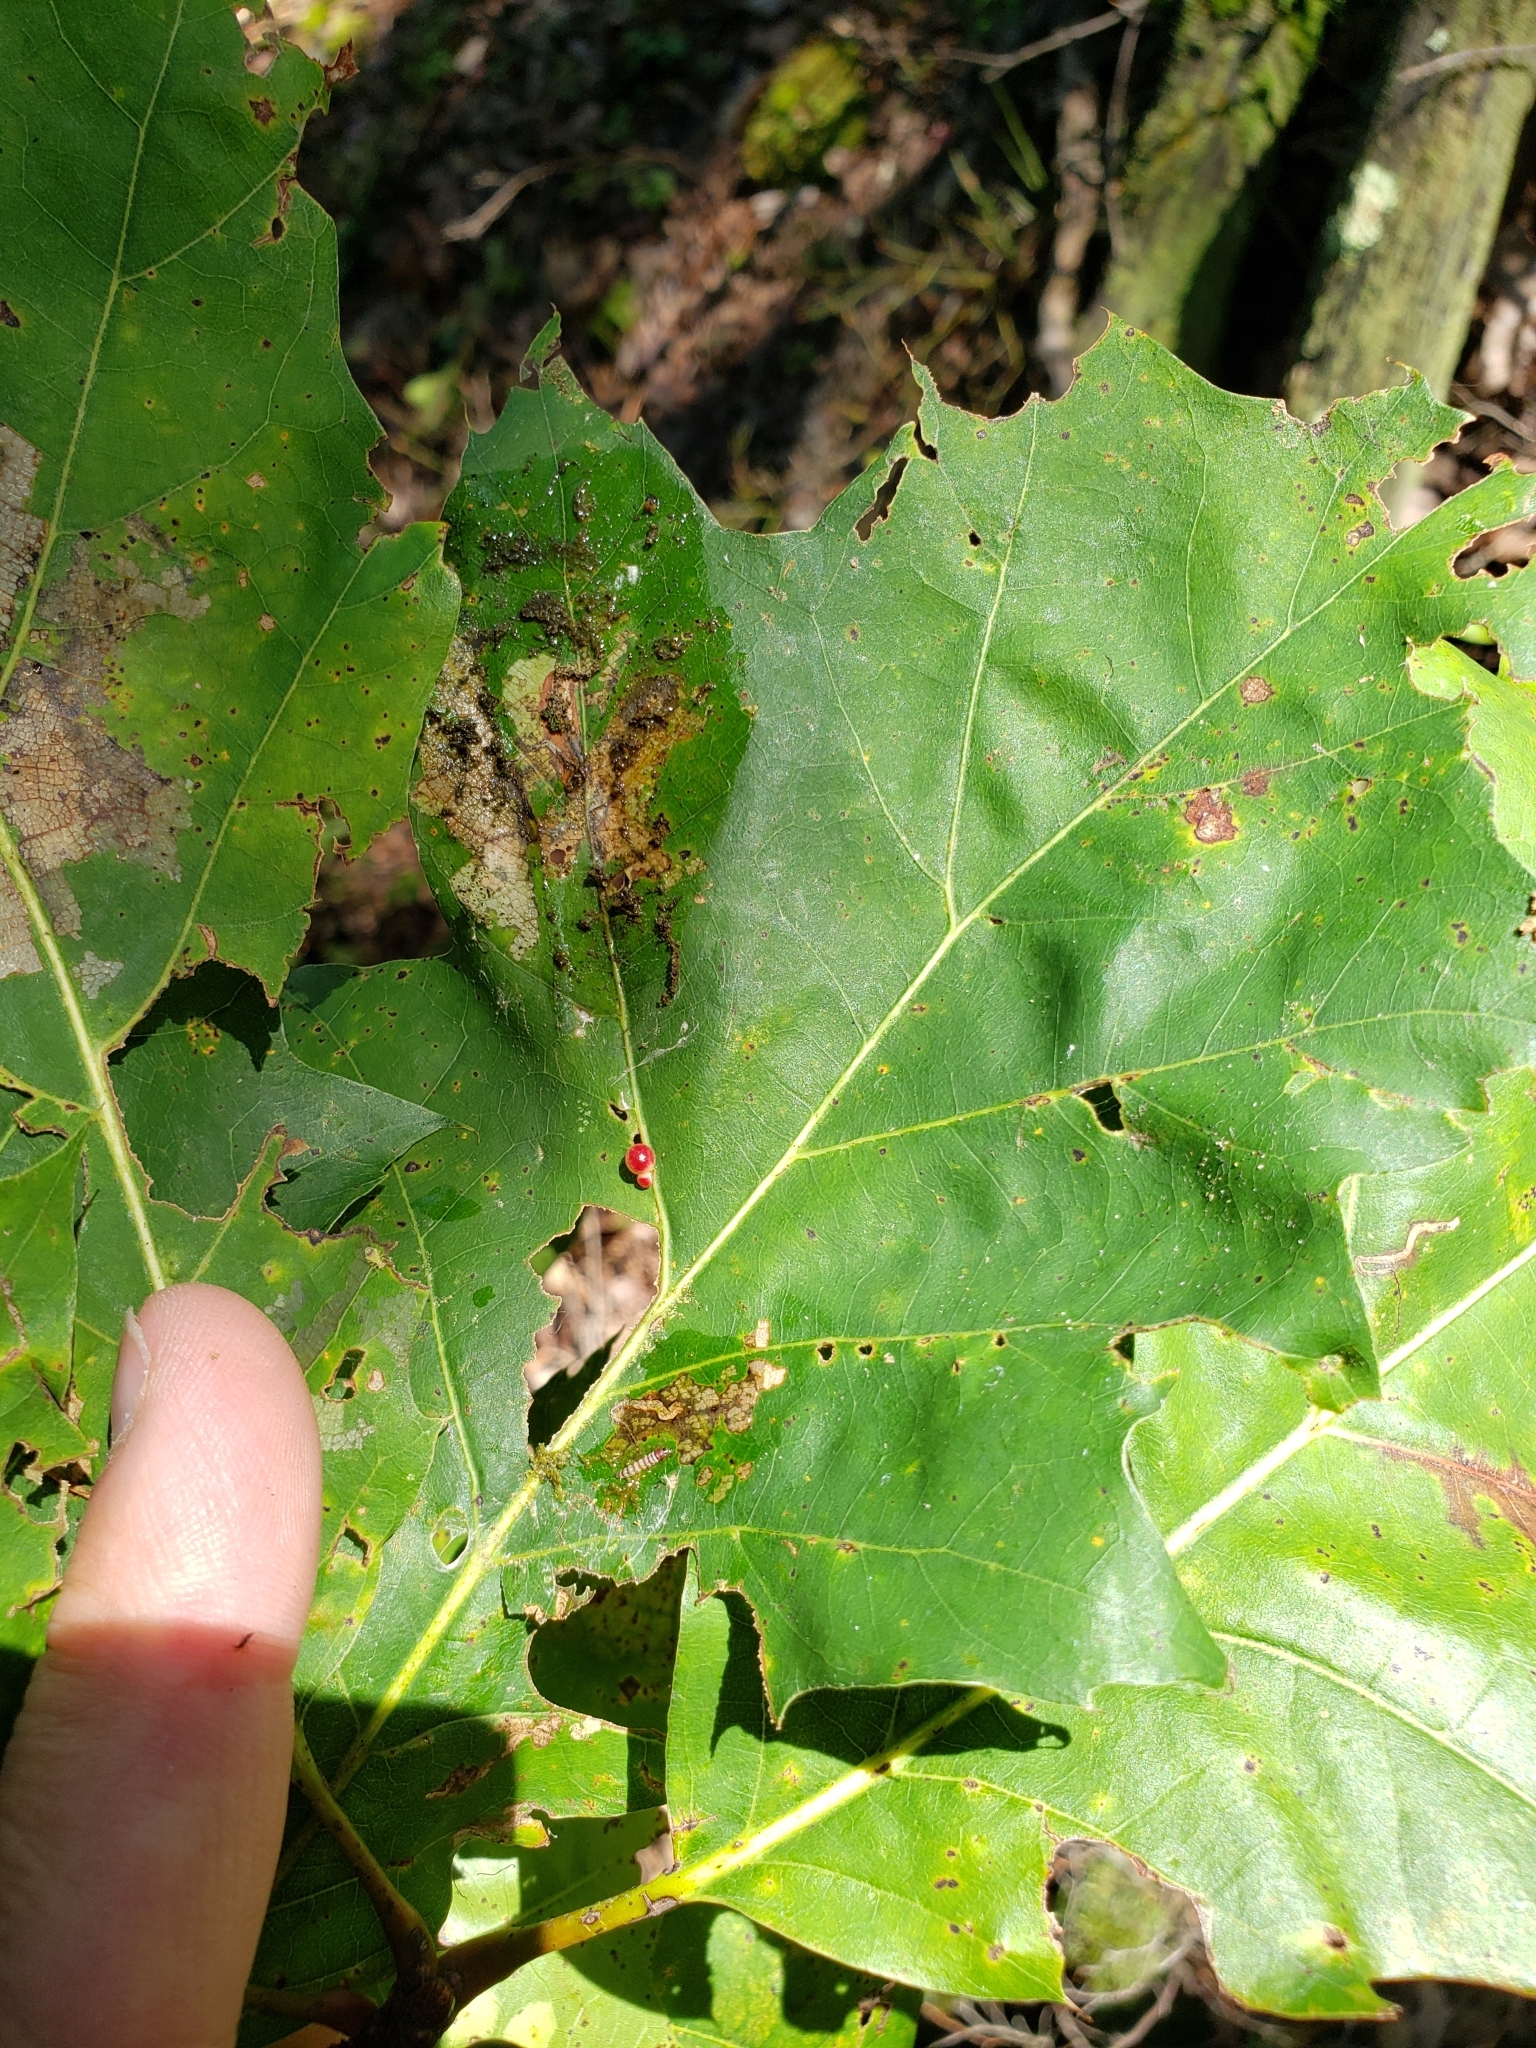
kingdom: Animalia
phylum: Arthropoda
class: Insecta
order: Hymenoptera
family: Cynipidae
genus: Zopheroteras
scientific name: Zopheroteras
